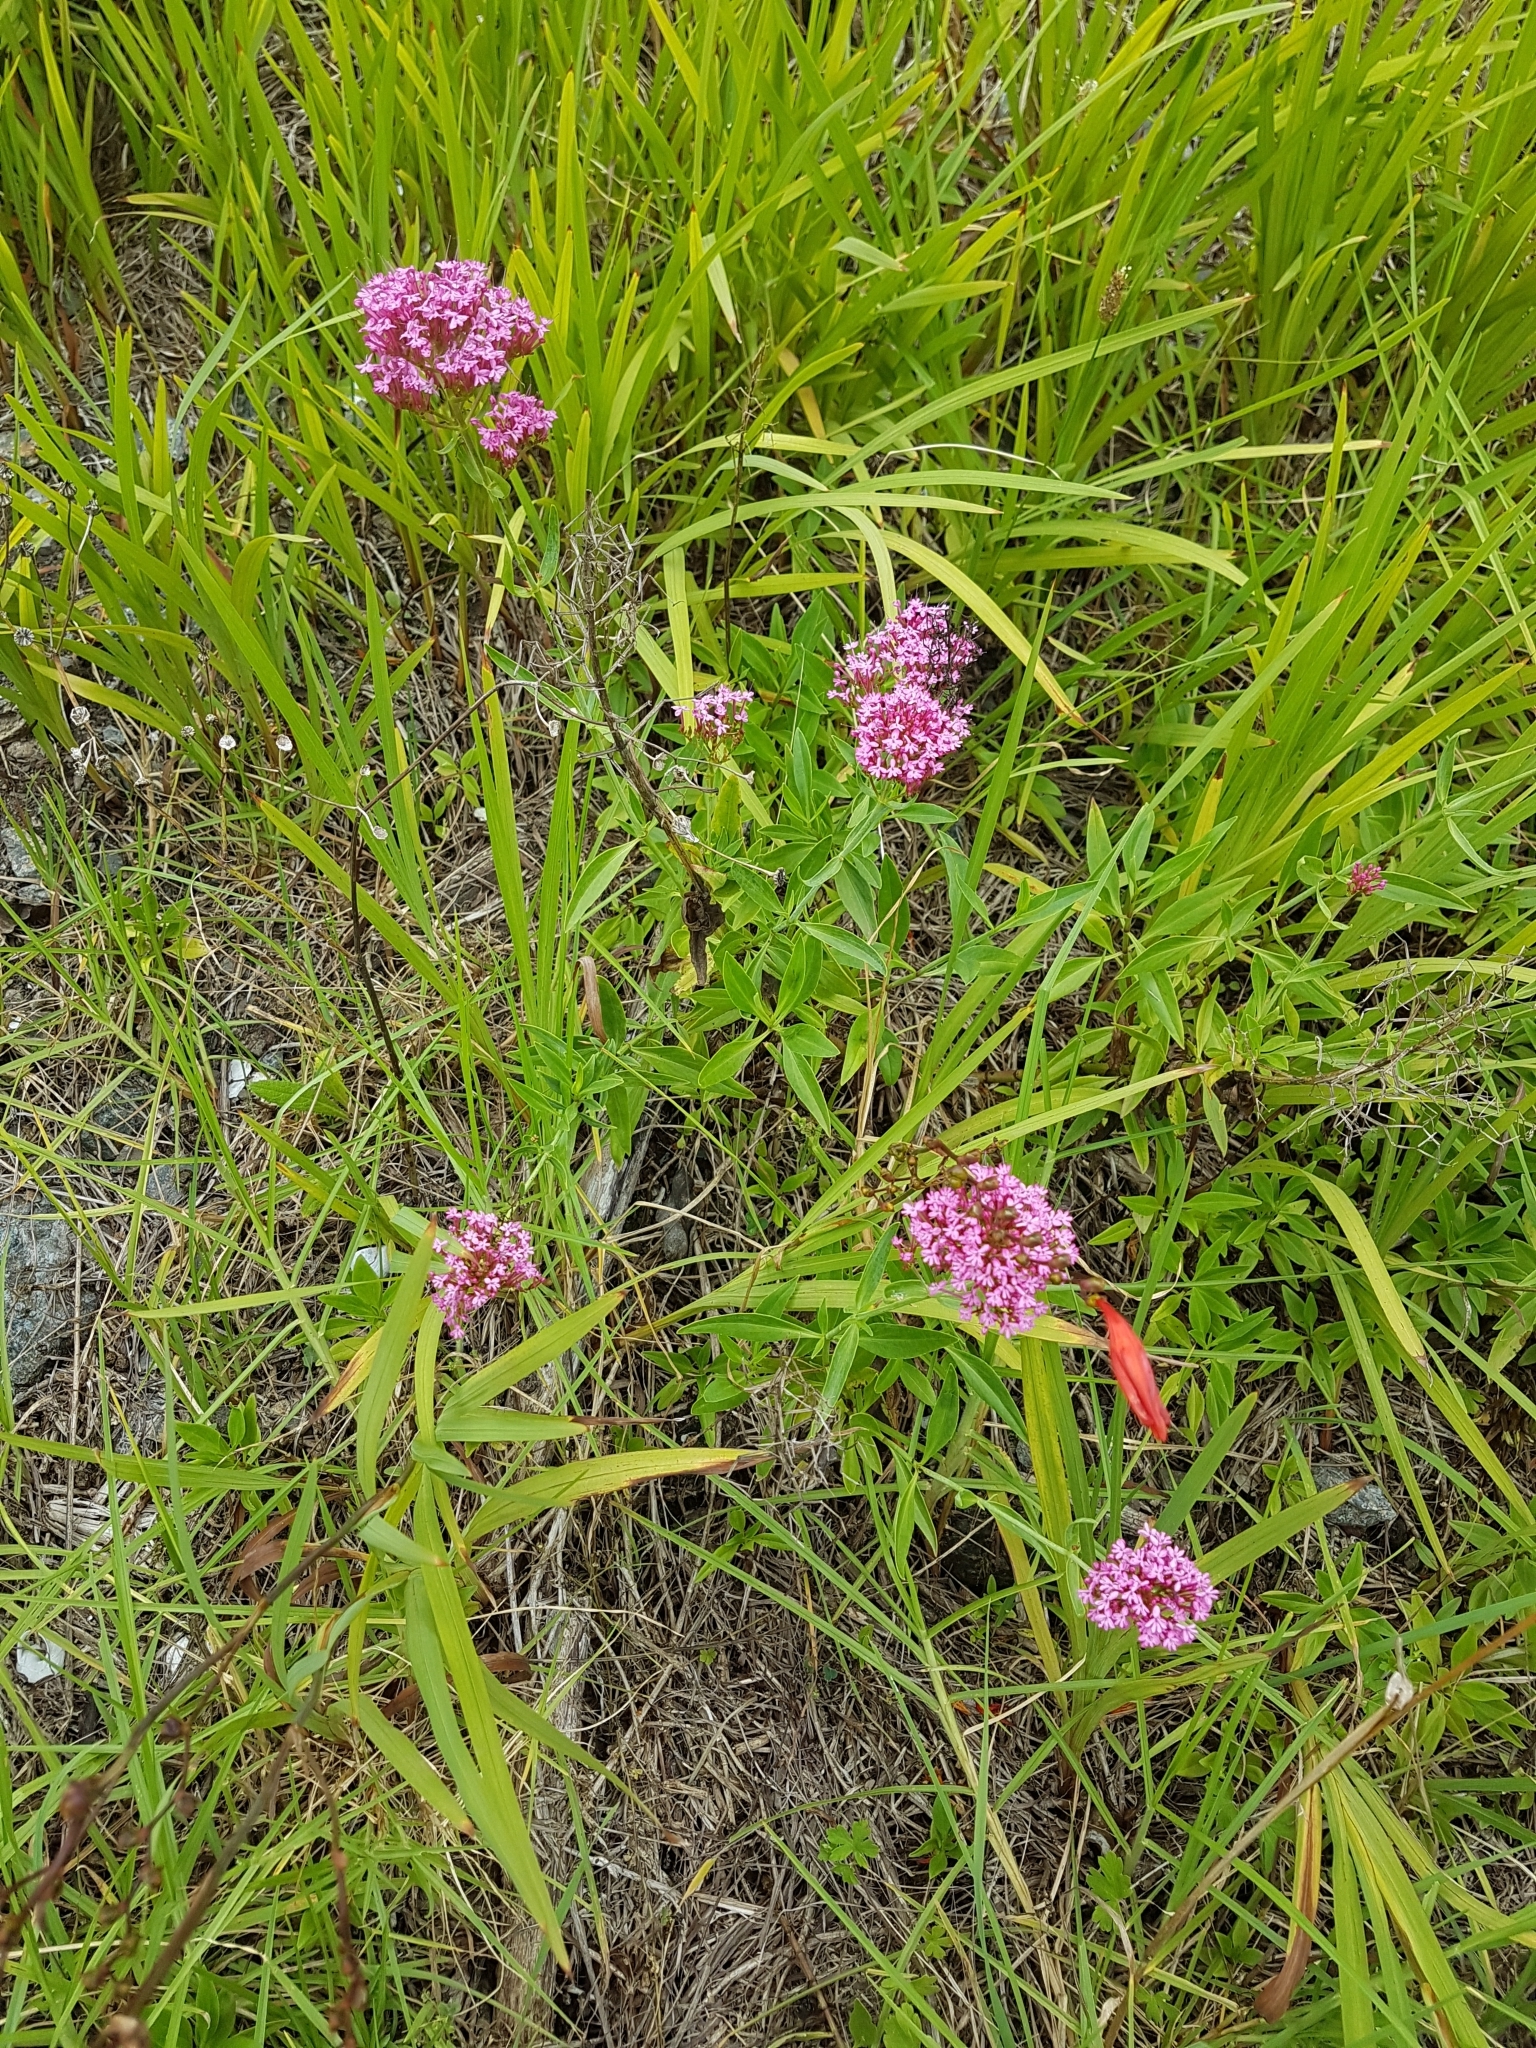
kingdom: Plantae
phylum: Tracheophyta
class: Magnoliopsida
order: Dipsacales
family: Caprifoliaceae
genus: Centranthus
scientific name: Centranthus ruber
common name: Red valerian
